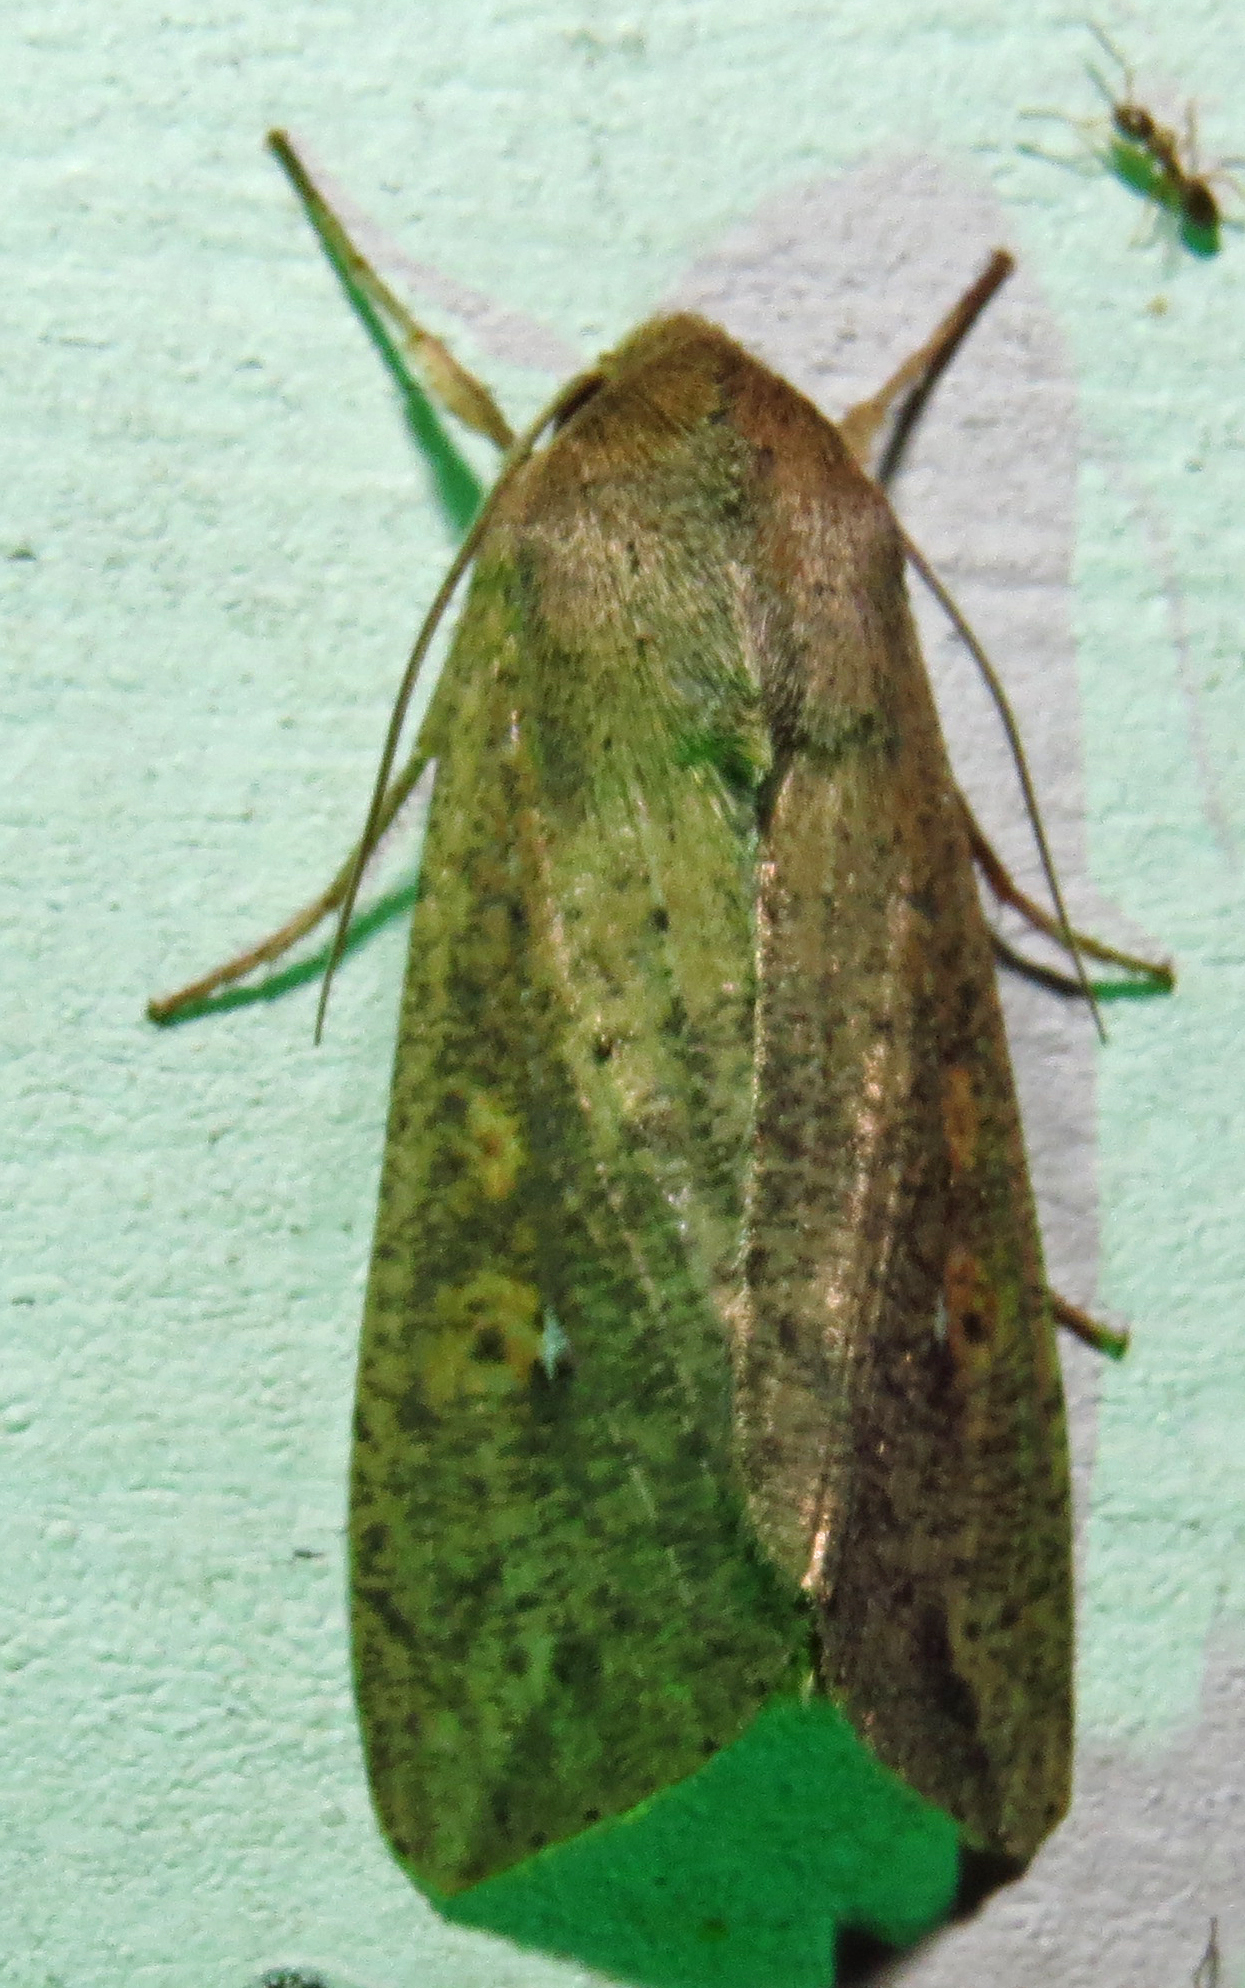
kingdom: Animalia
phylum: Arthropoda
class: Insecta
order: Lepidoptera
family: Noctuidae
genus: Mythimna
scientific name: Mythimna unipuncta
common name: White-speck
